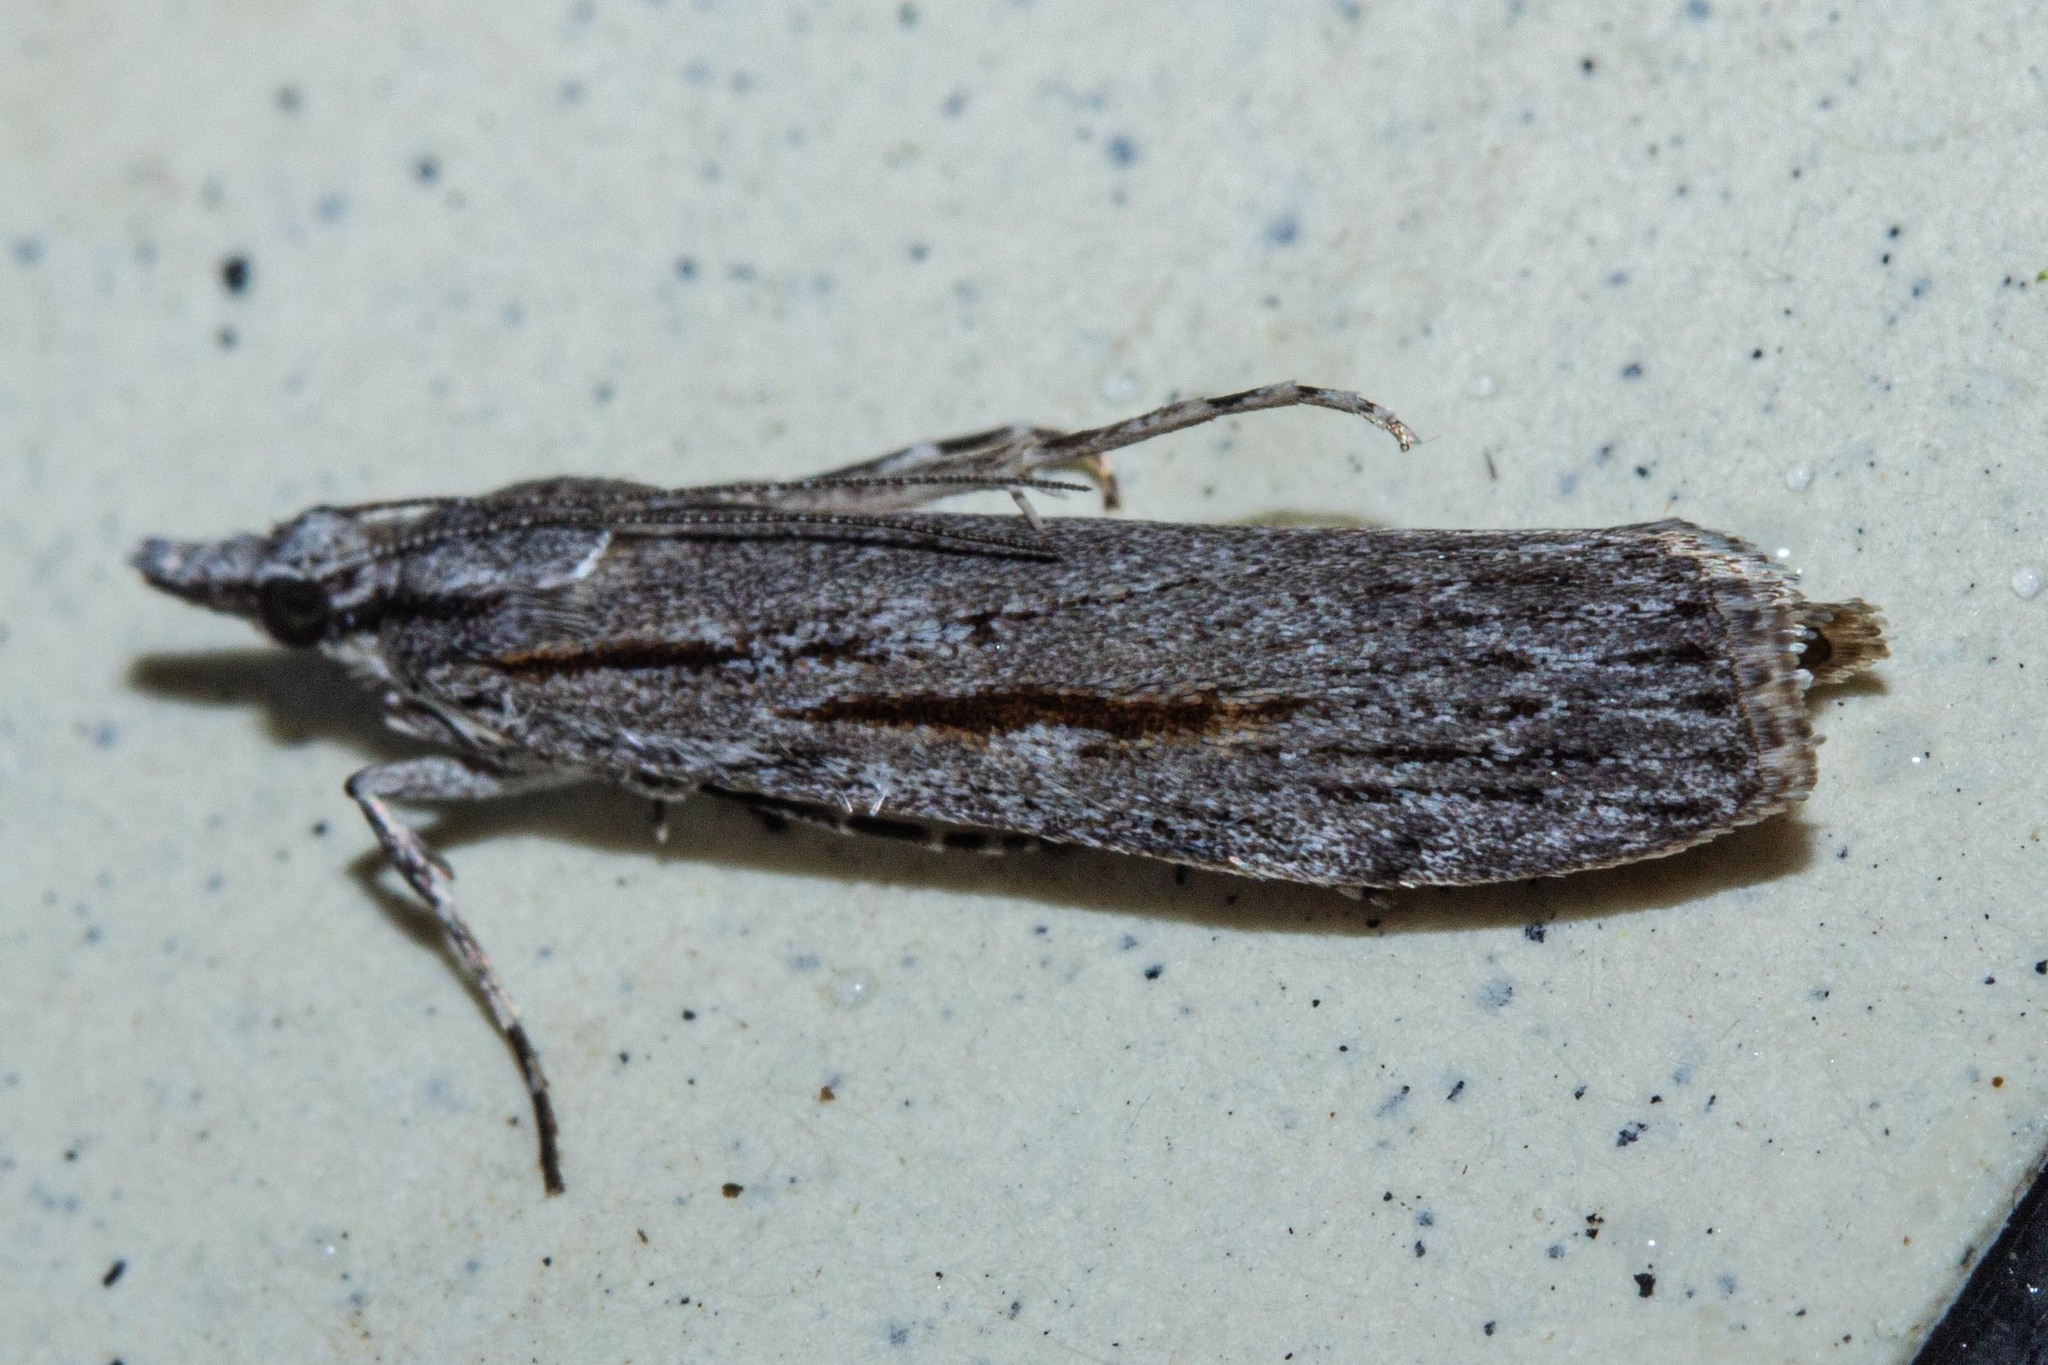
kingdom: Animalia
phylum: Arthropoda
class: Insecta
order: Lepidoptera
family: Crambidae
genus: Scoparia
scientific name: Scoparia indistinctalis
